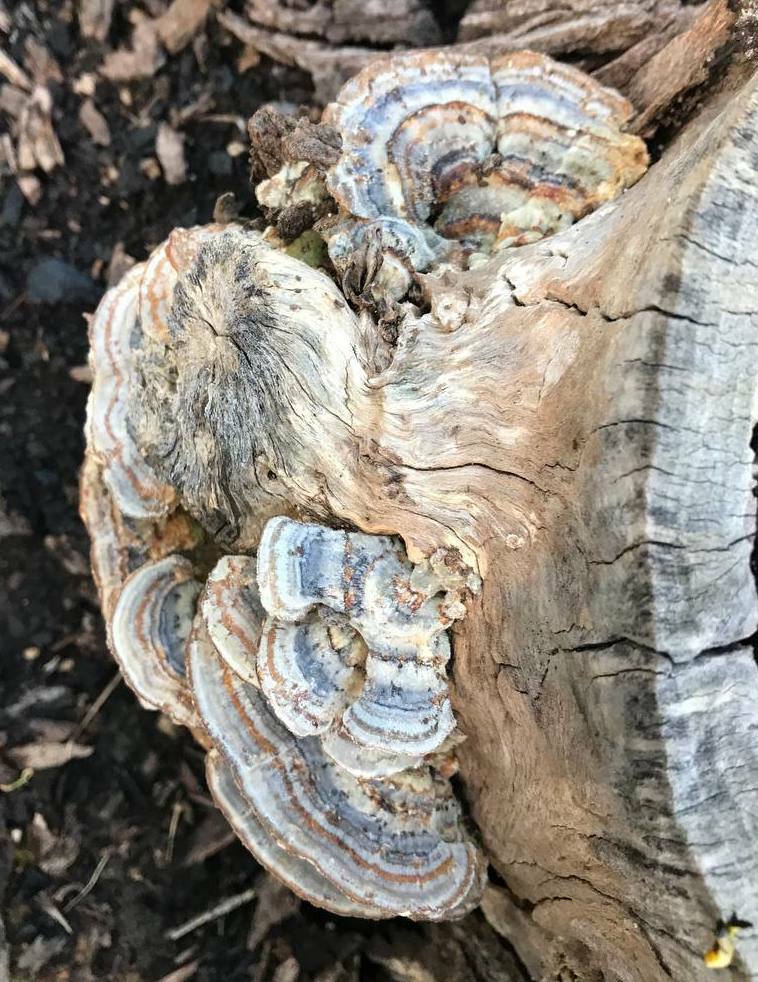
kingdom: Fungi
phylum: Basidiomycota
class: Agaricomycetes
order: Polyporales
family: Polyporaceae
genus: Trametes
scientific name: Trametes versicolor
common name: Turkeytail
